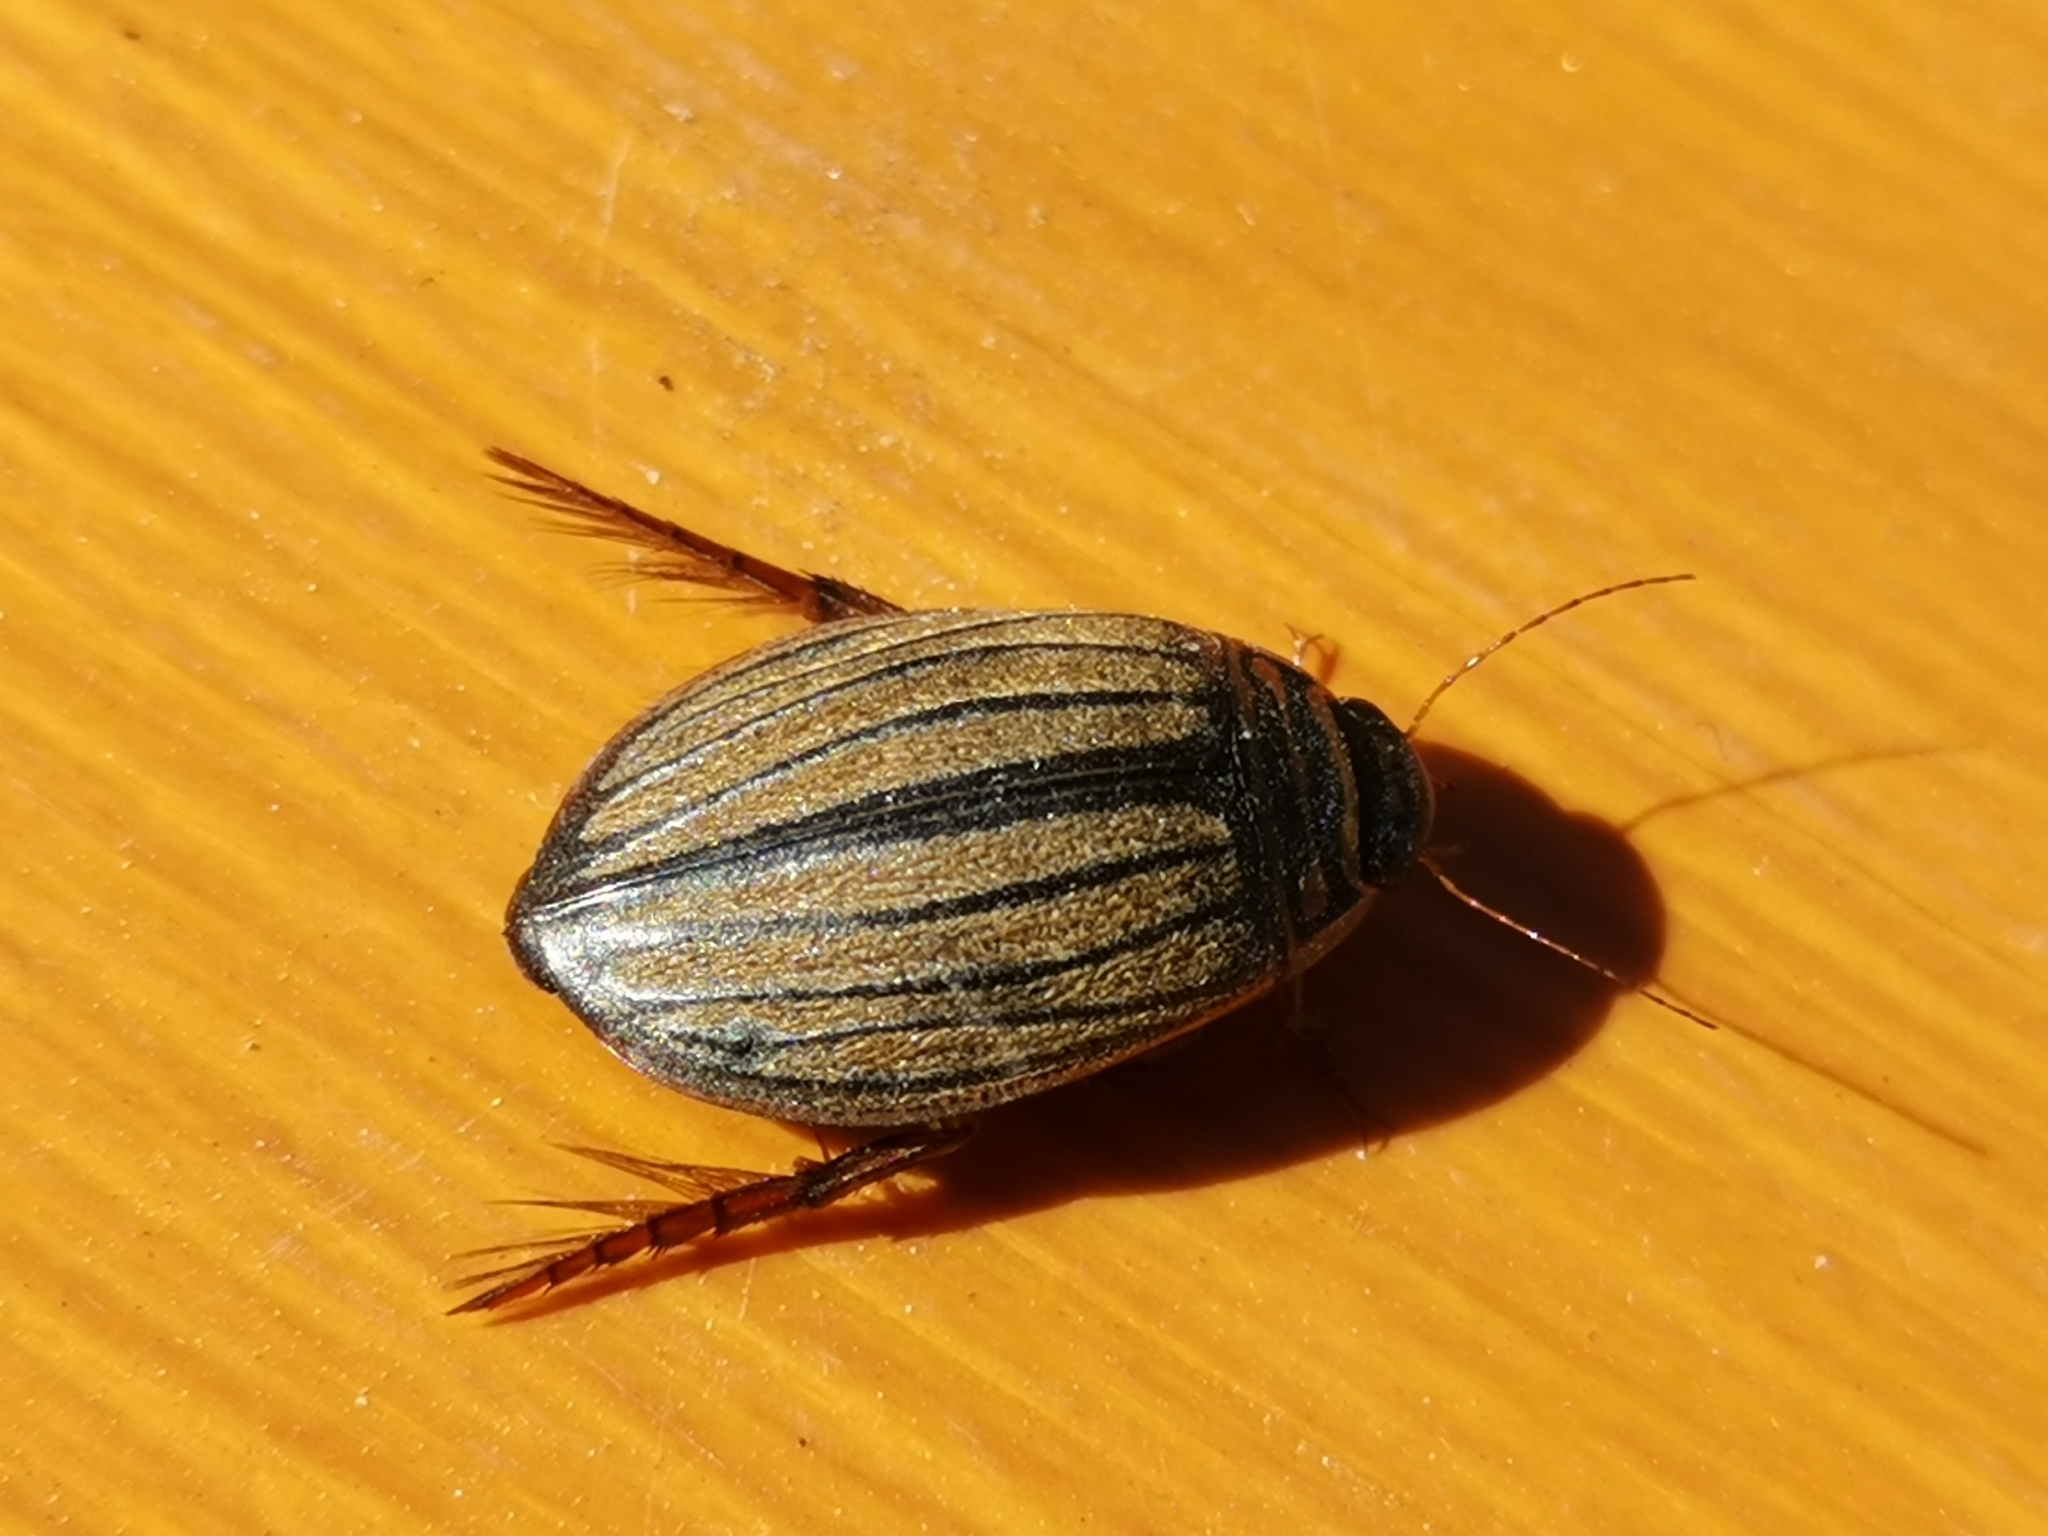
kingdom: Animalia
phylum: Arthropoda
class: Insecta
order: Coleoptera
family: Dytiscidae
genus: Acilius
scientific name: Acilius canaliculatus
